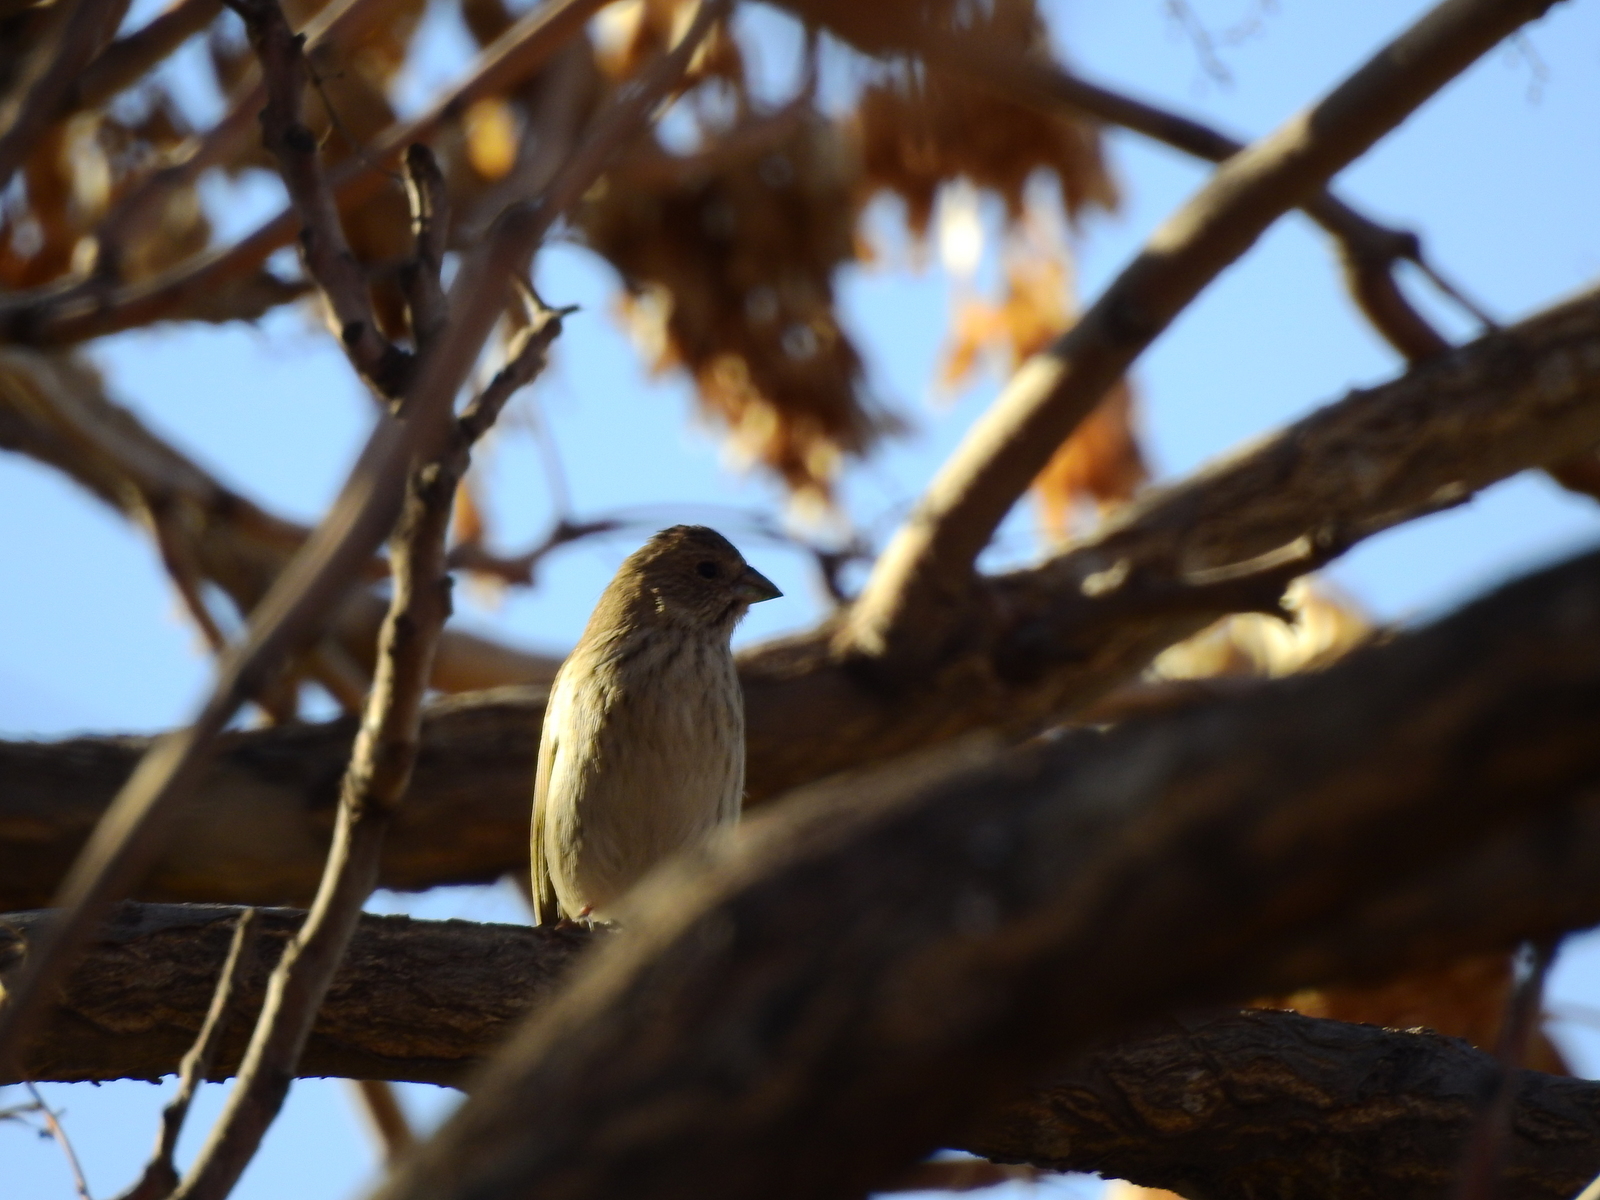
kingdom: Animalia
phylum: Chordata
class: Aves
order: Passeriformes
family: Thraupidae
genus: Sicalis
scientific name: Sicalis flaveola
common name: Saffron finch
